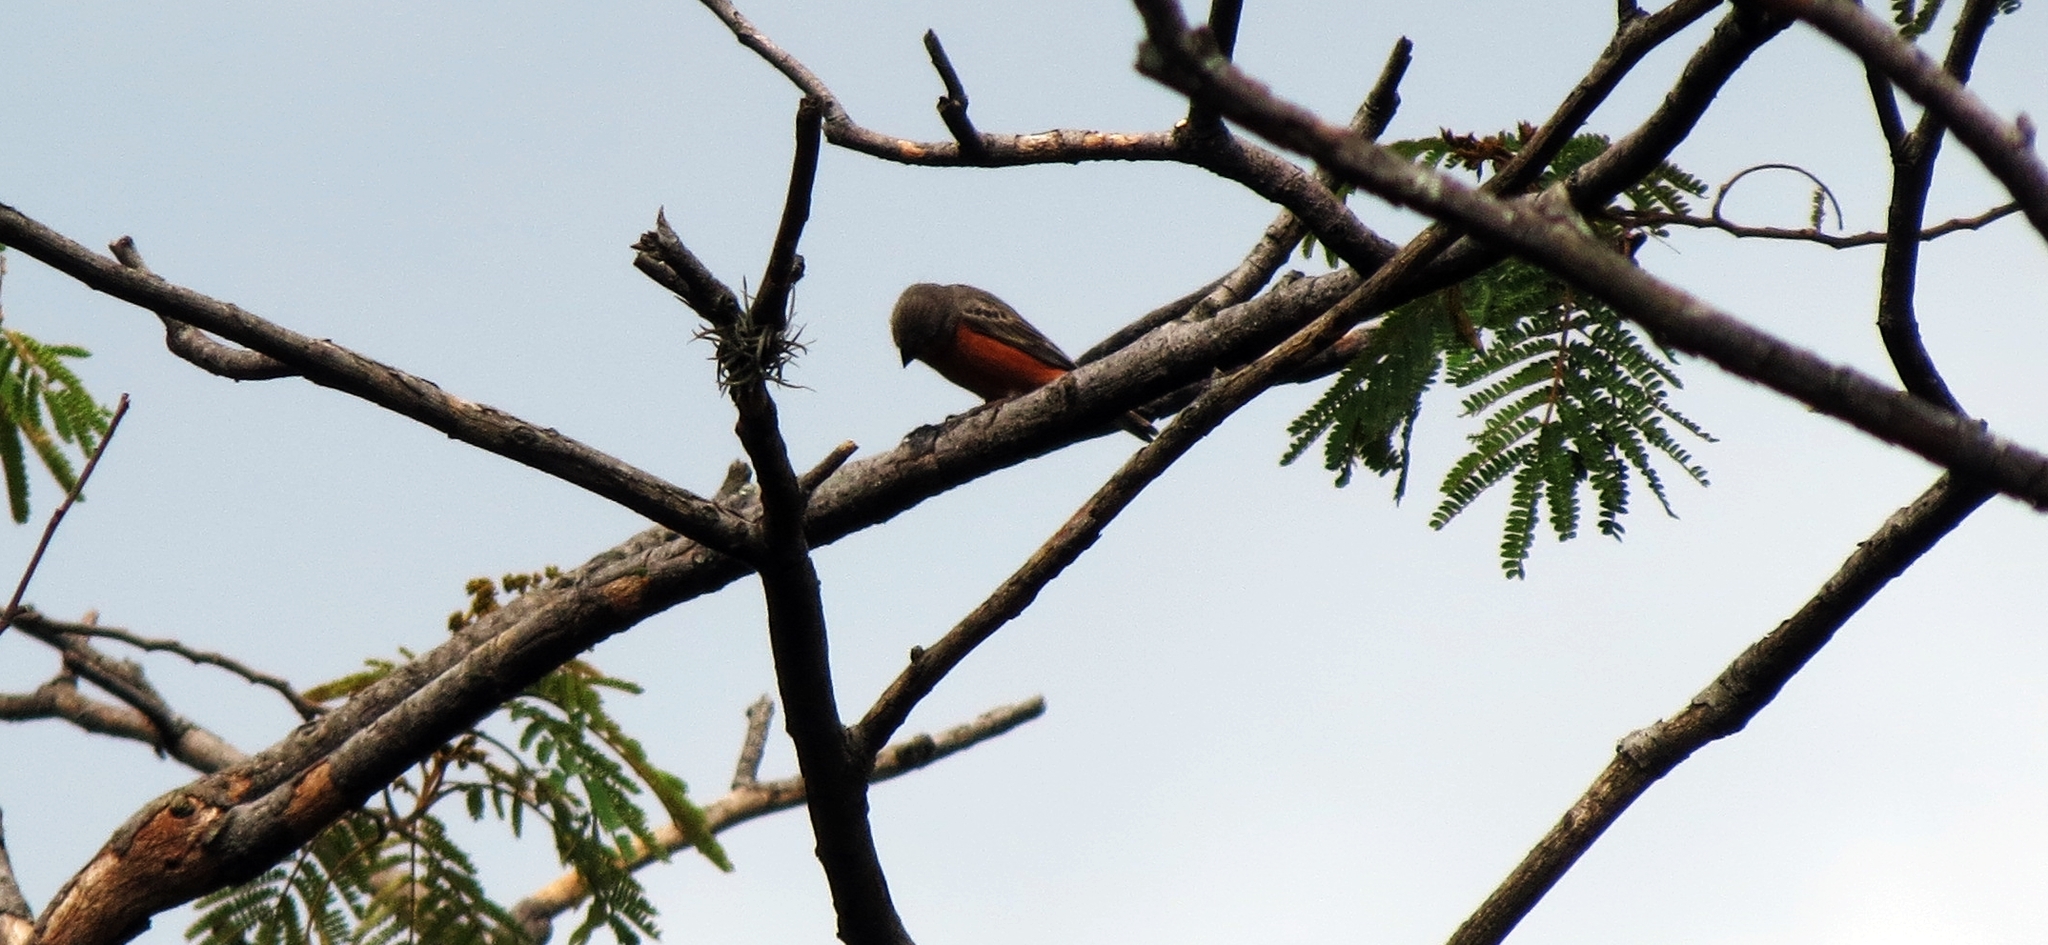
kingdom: Animalia
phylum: Chordata
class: Aves
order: Passeriformes
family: Thraupidae
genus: Sporophila
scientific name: Sporophila minuta
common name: Ruddy-breasted seedeater
